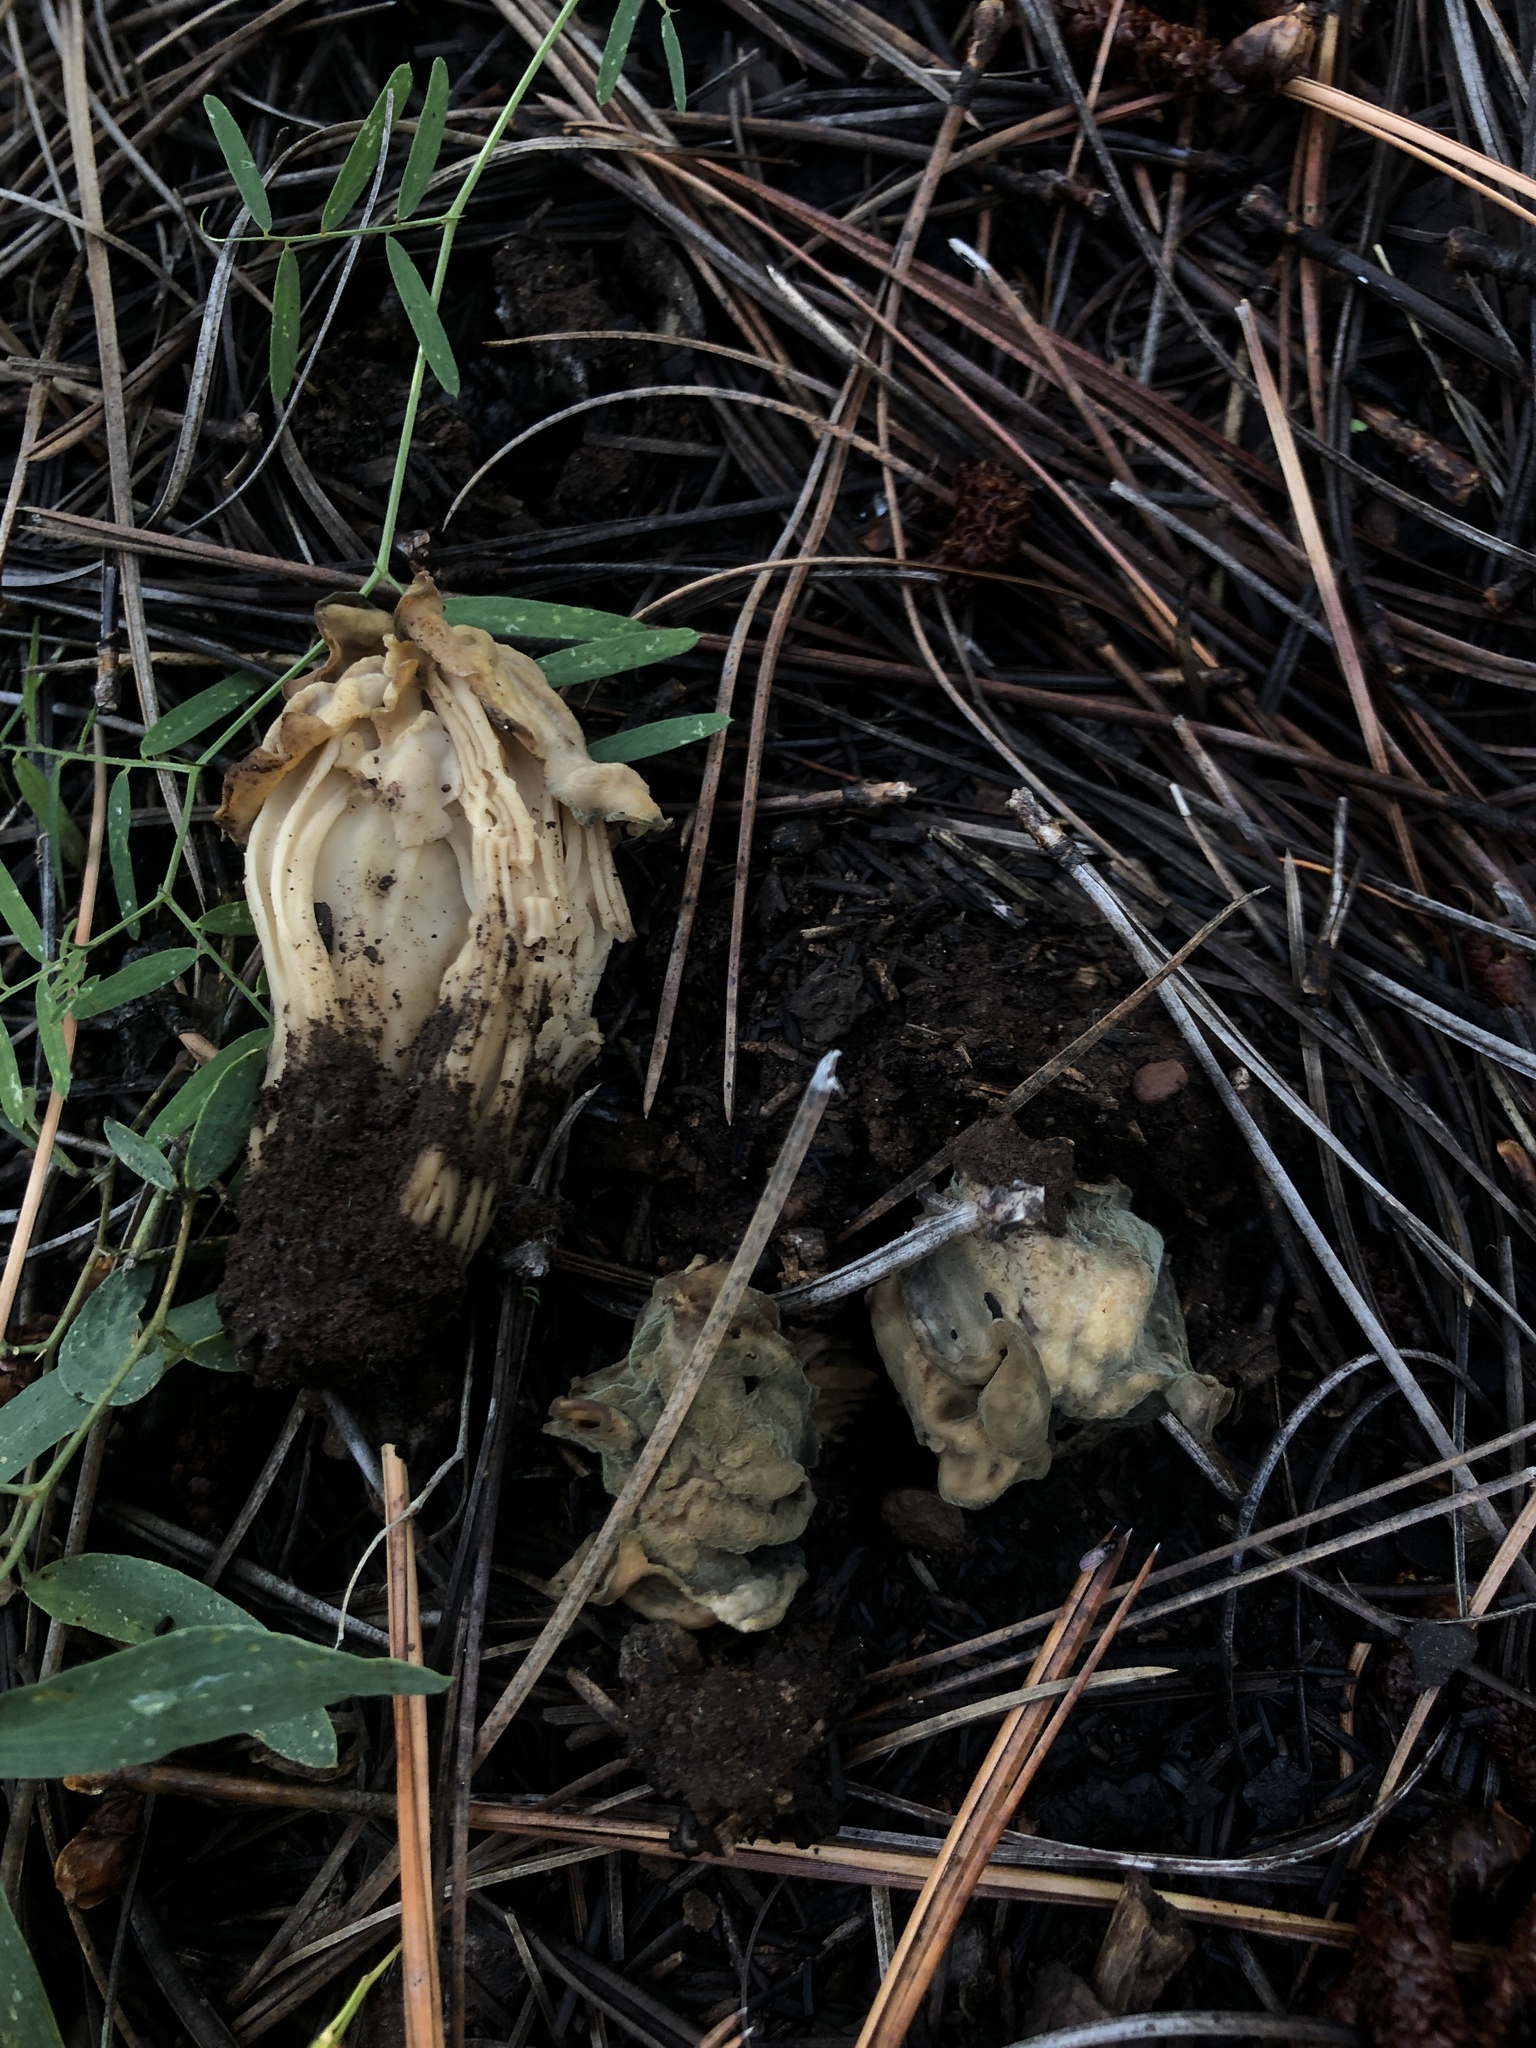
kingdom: Fungi
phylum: Ascomycota
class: Pezizomycetes
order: Pezizales
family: Helvellaceae
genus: Helvella
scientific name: Helvella crispa
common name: White saddle
